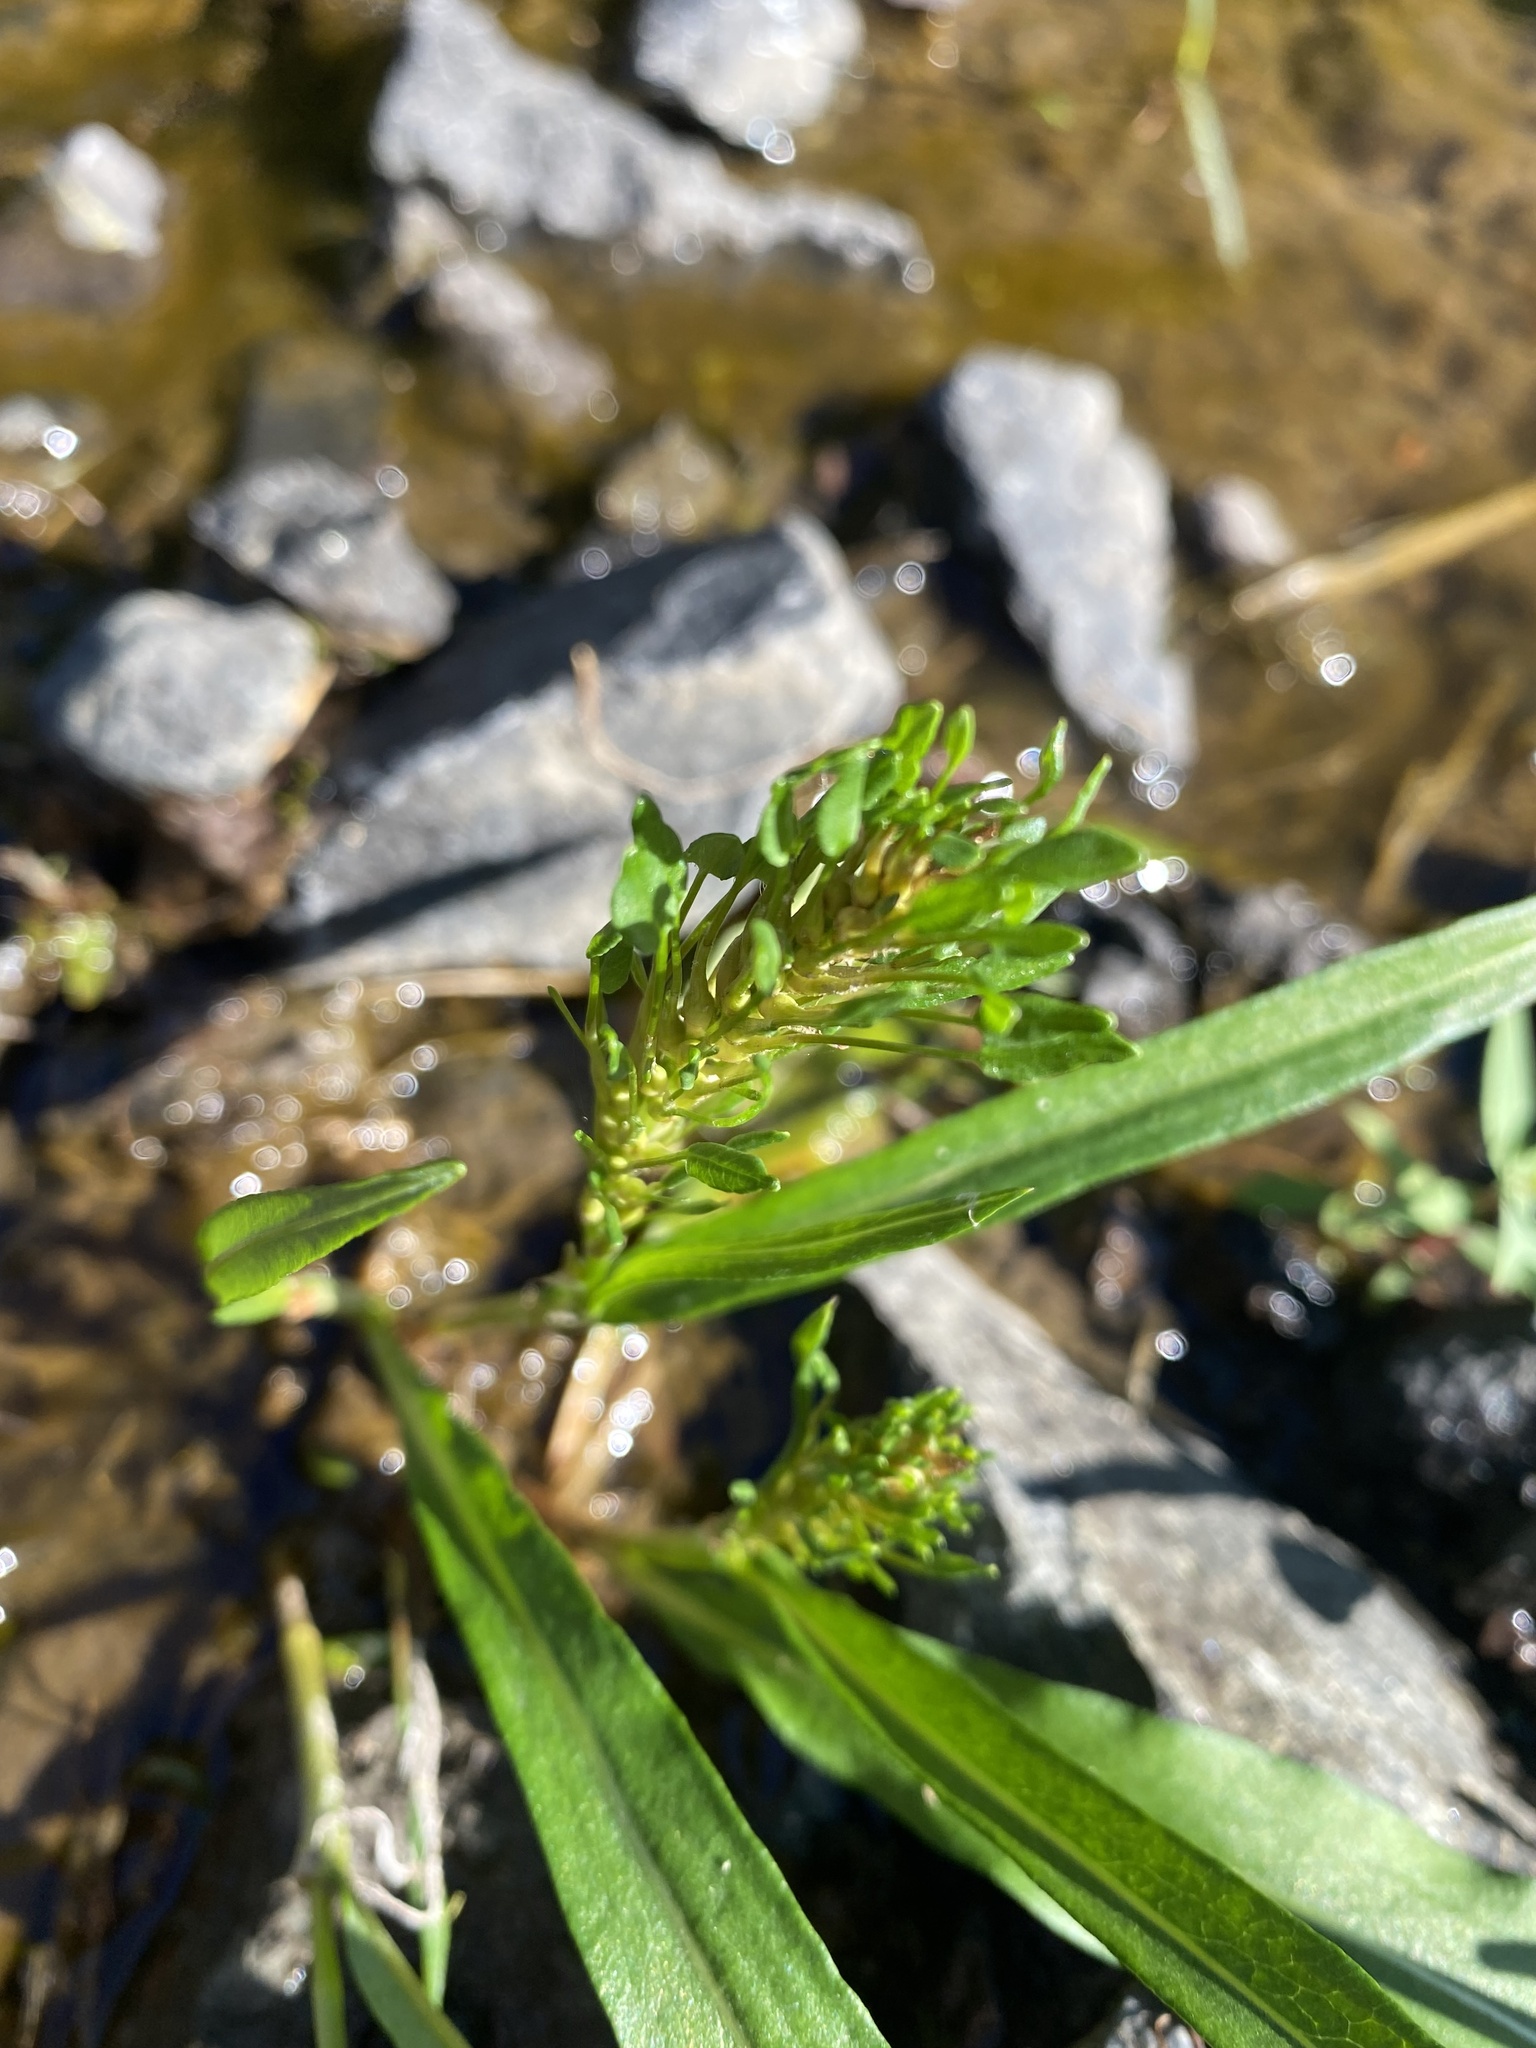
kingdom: Plantae
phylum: Tracheophyta
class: Magnoliopsida
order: Caryophyllales
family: Polygonaceae
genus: Bistorta
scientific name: Bistorta vivipara
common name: Alpine bistort
